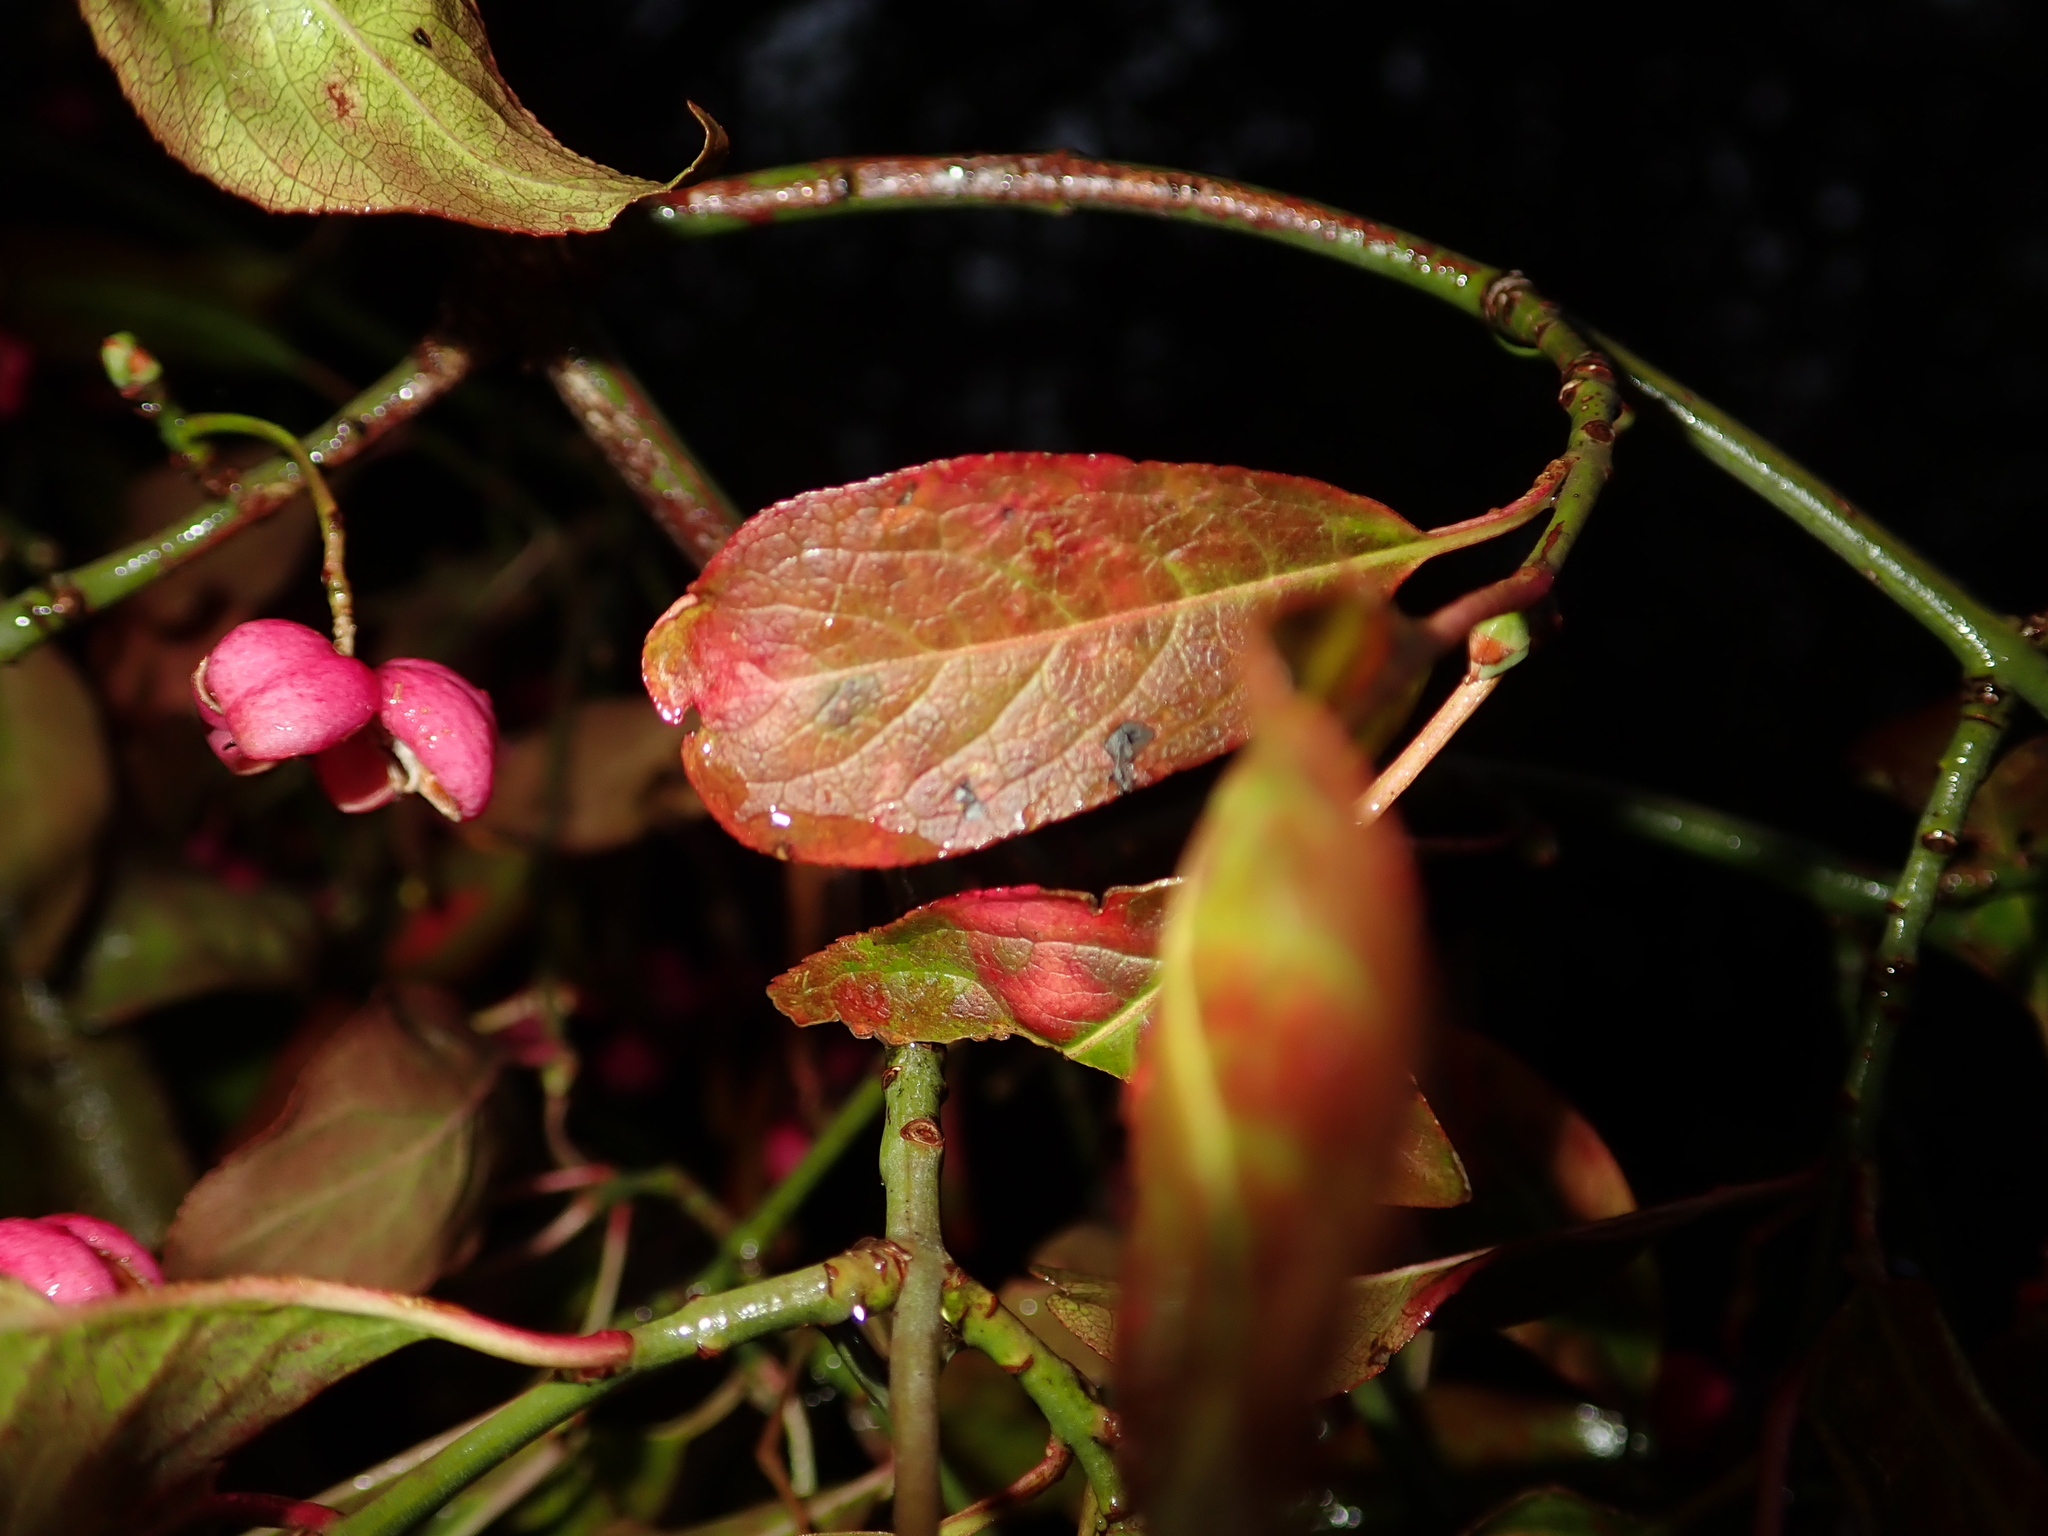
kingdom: Plantae
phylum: Tracheophyta
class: Magnoliopsida
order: Celastrales
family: Celastraceae
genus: Euonymus
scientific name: Euonymus europaeus
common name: Spindle
